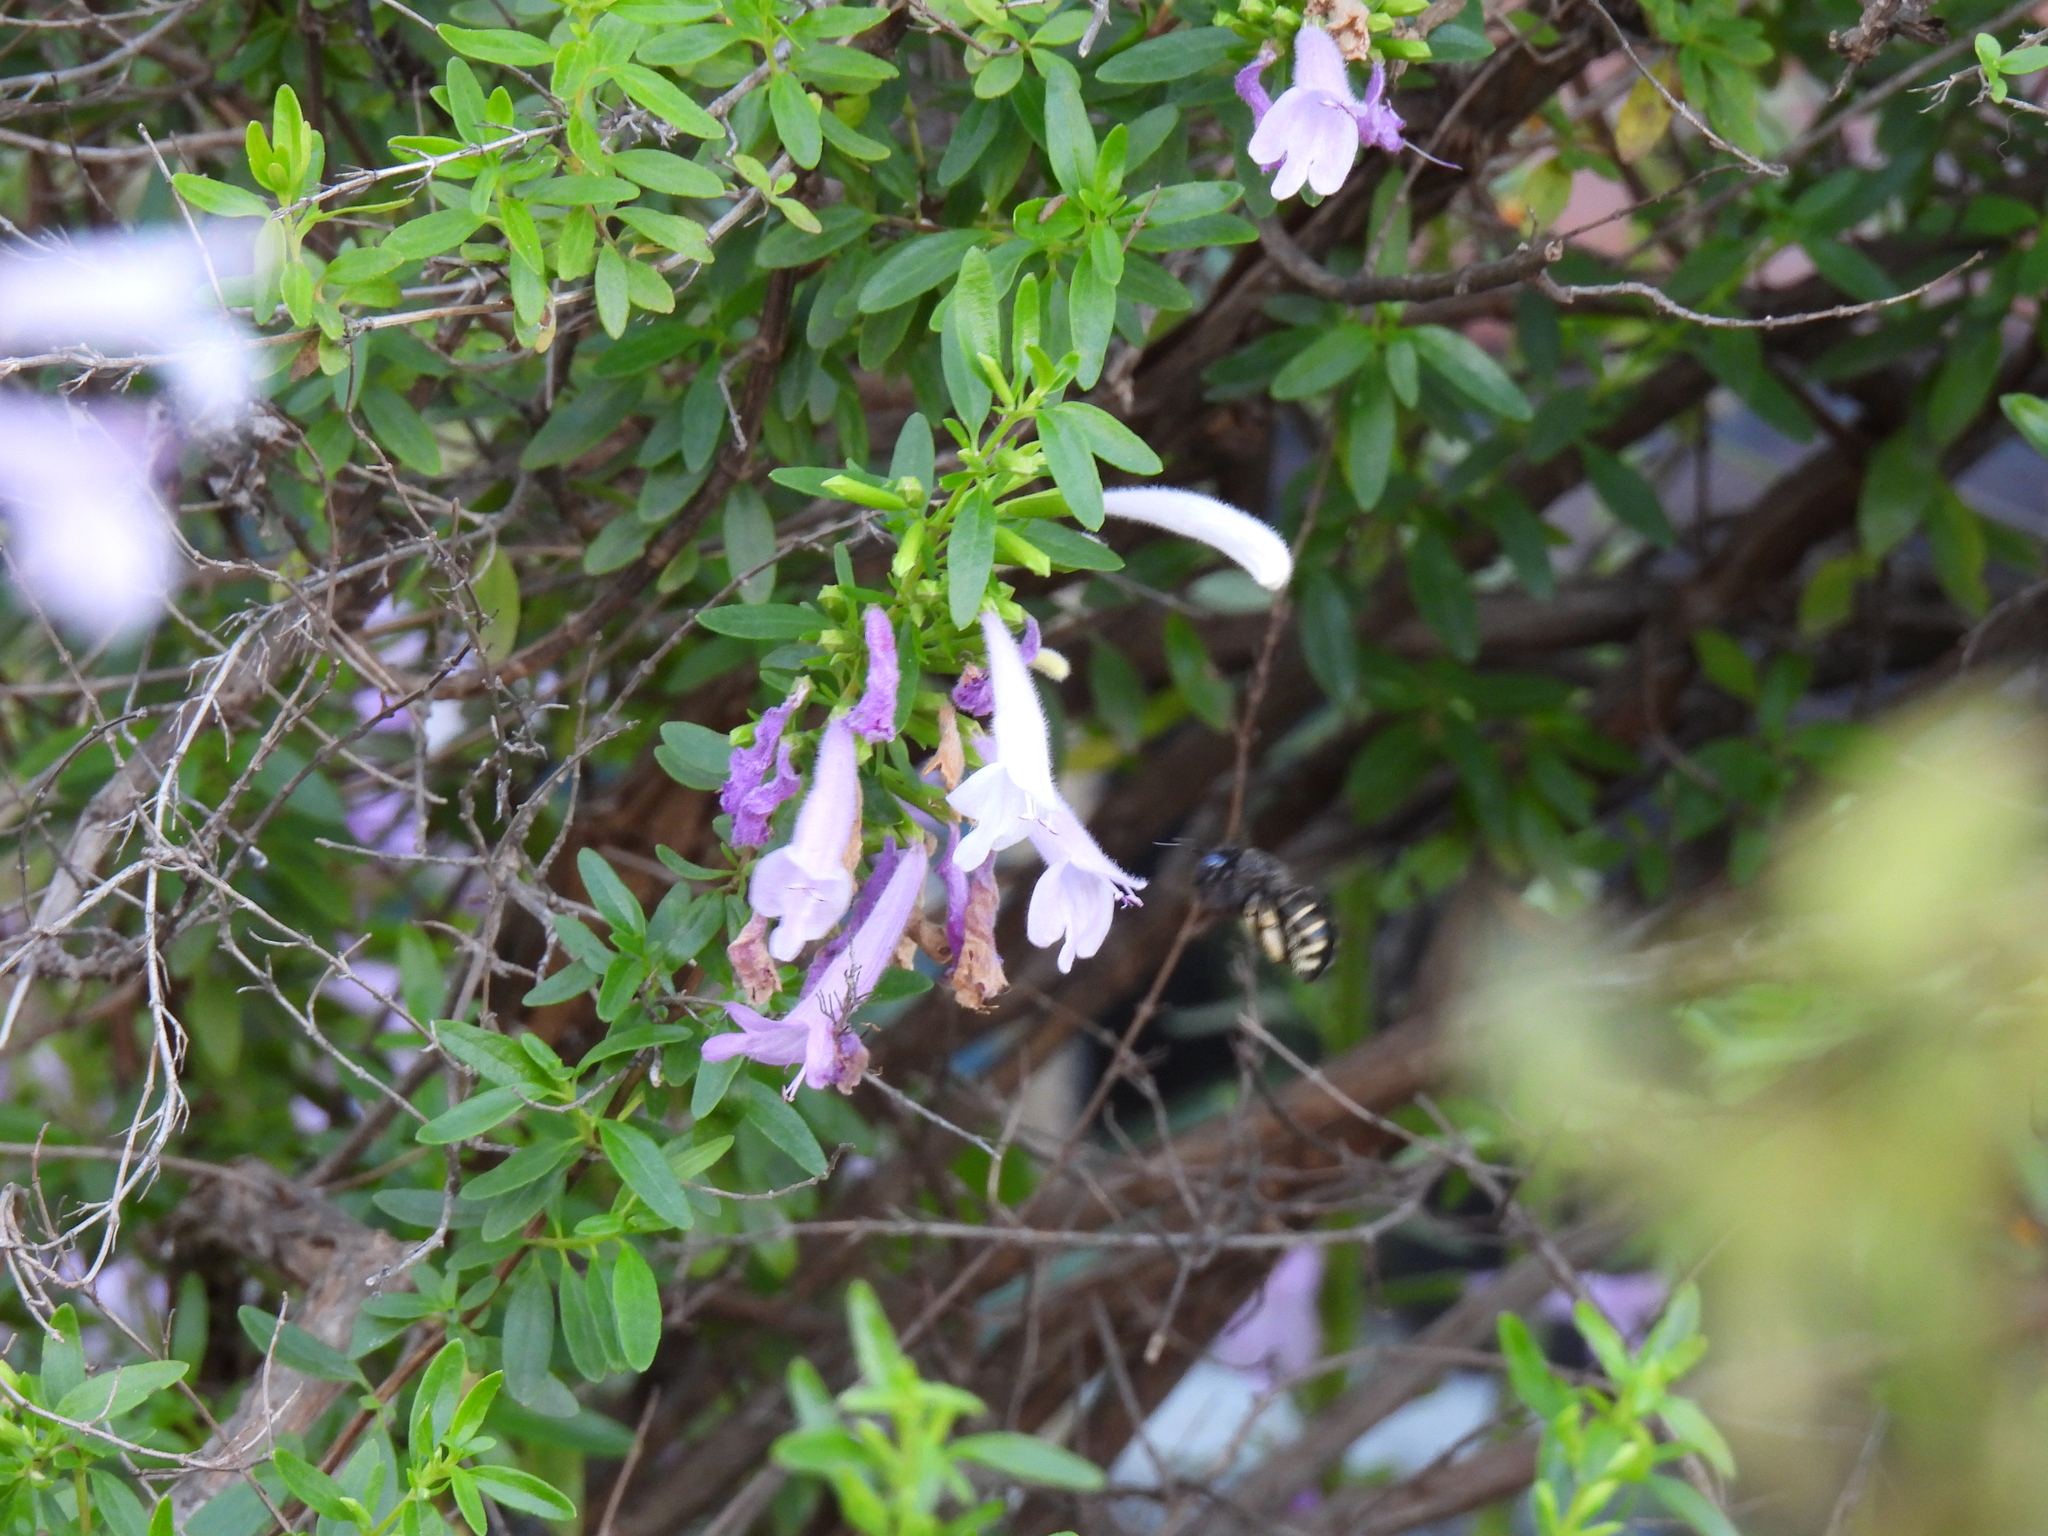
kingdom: Animalia
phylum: Arthropoda
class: Insecta
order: Hymenoptera
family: Apidae
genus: Xylocopa
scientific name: Xylocopa tabaniformis
